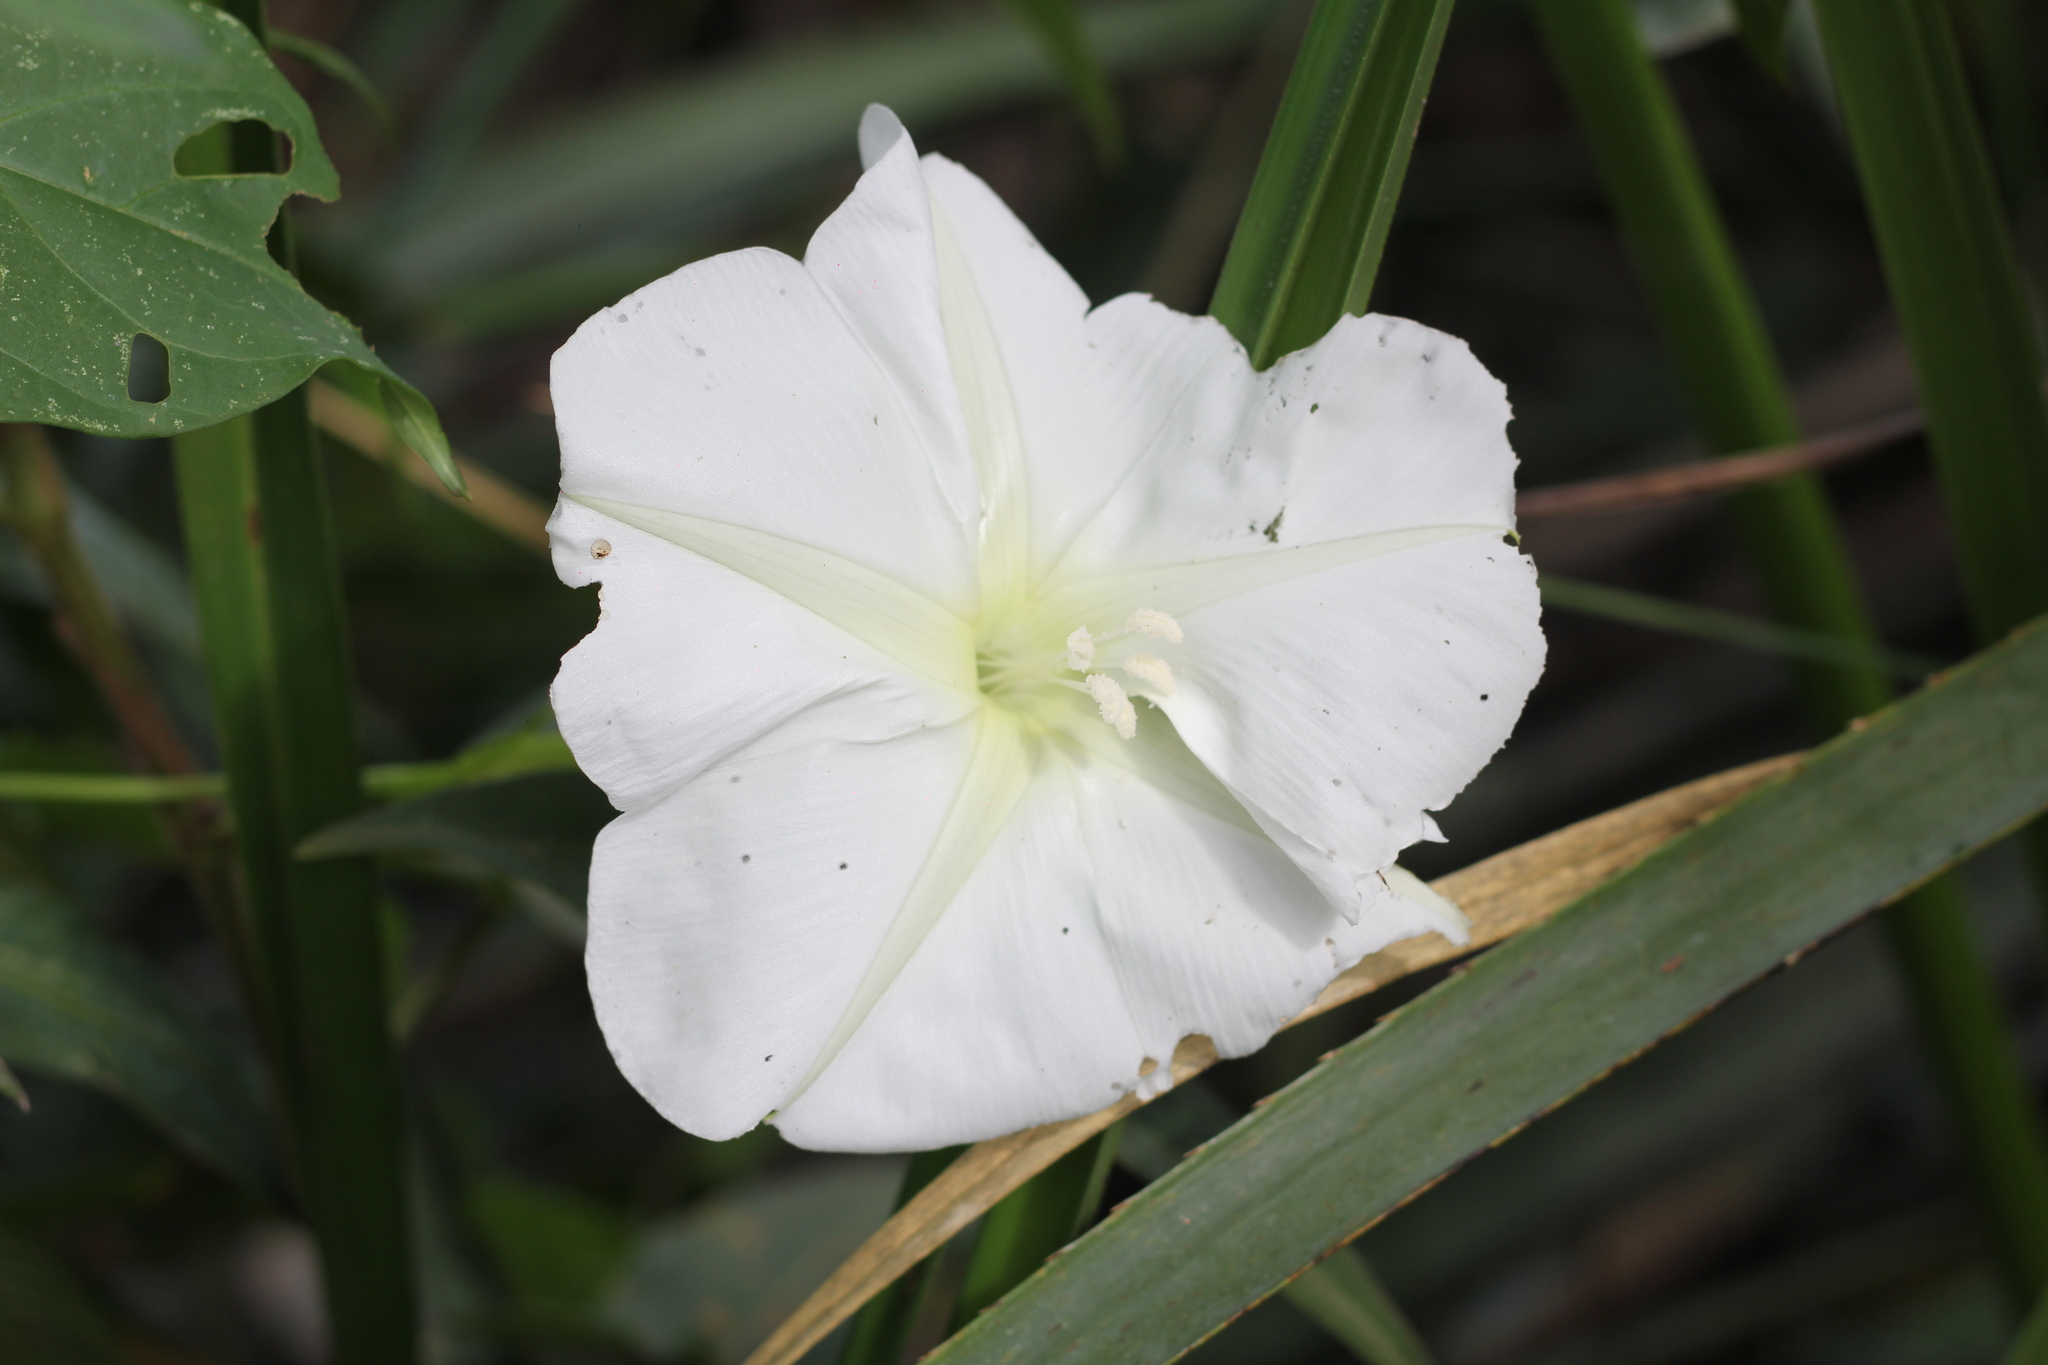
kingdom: Plantae
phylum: Tracheophyta
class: Magnoliopsida
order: Solanales
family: Convolvulaceae
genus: Ipomoea
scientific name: Ipomoea alba
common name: Moonflower
